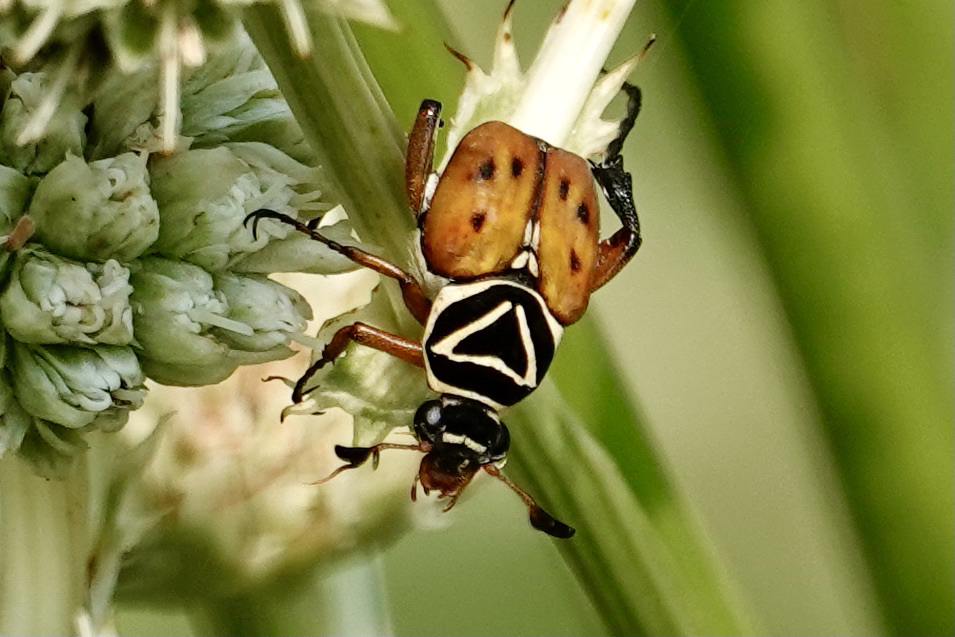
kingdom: Animalia
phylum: Arthropoda
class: Insecta
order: Coleoptera
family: Scarabaeidae
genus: Trigonopeltastes
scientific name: Trigonopeltastes delta
